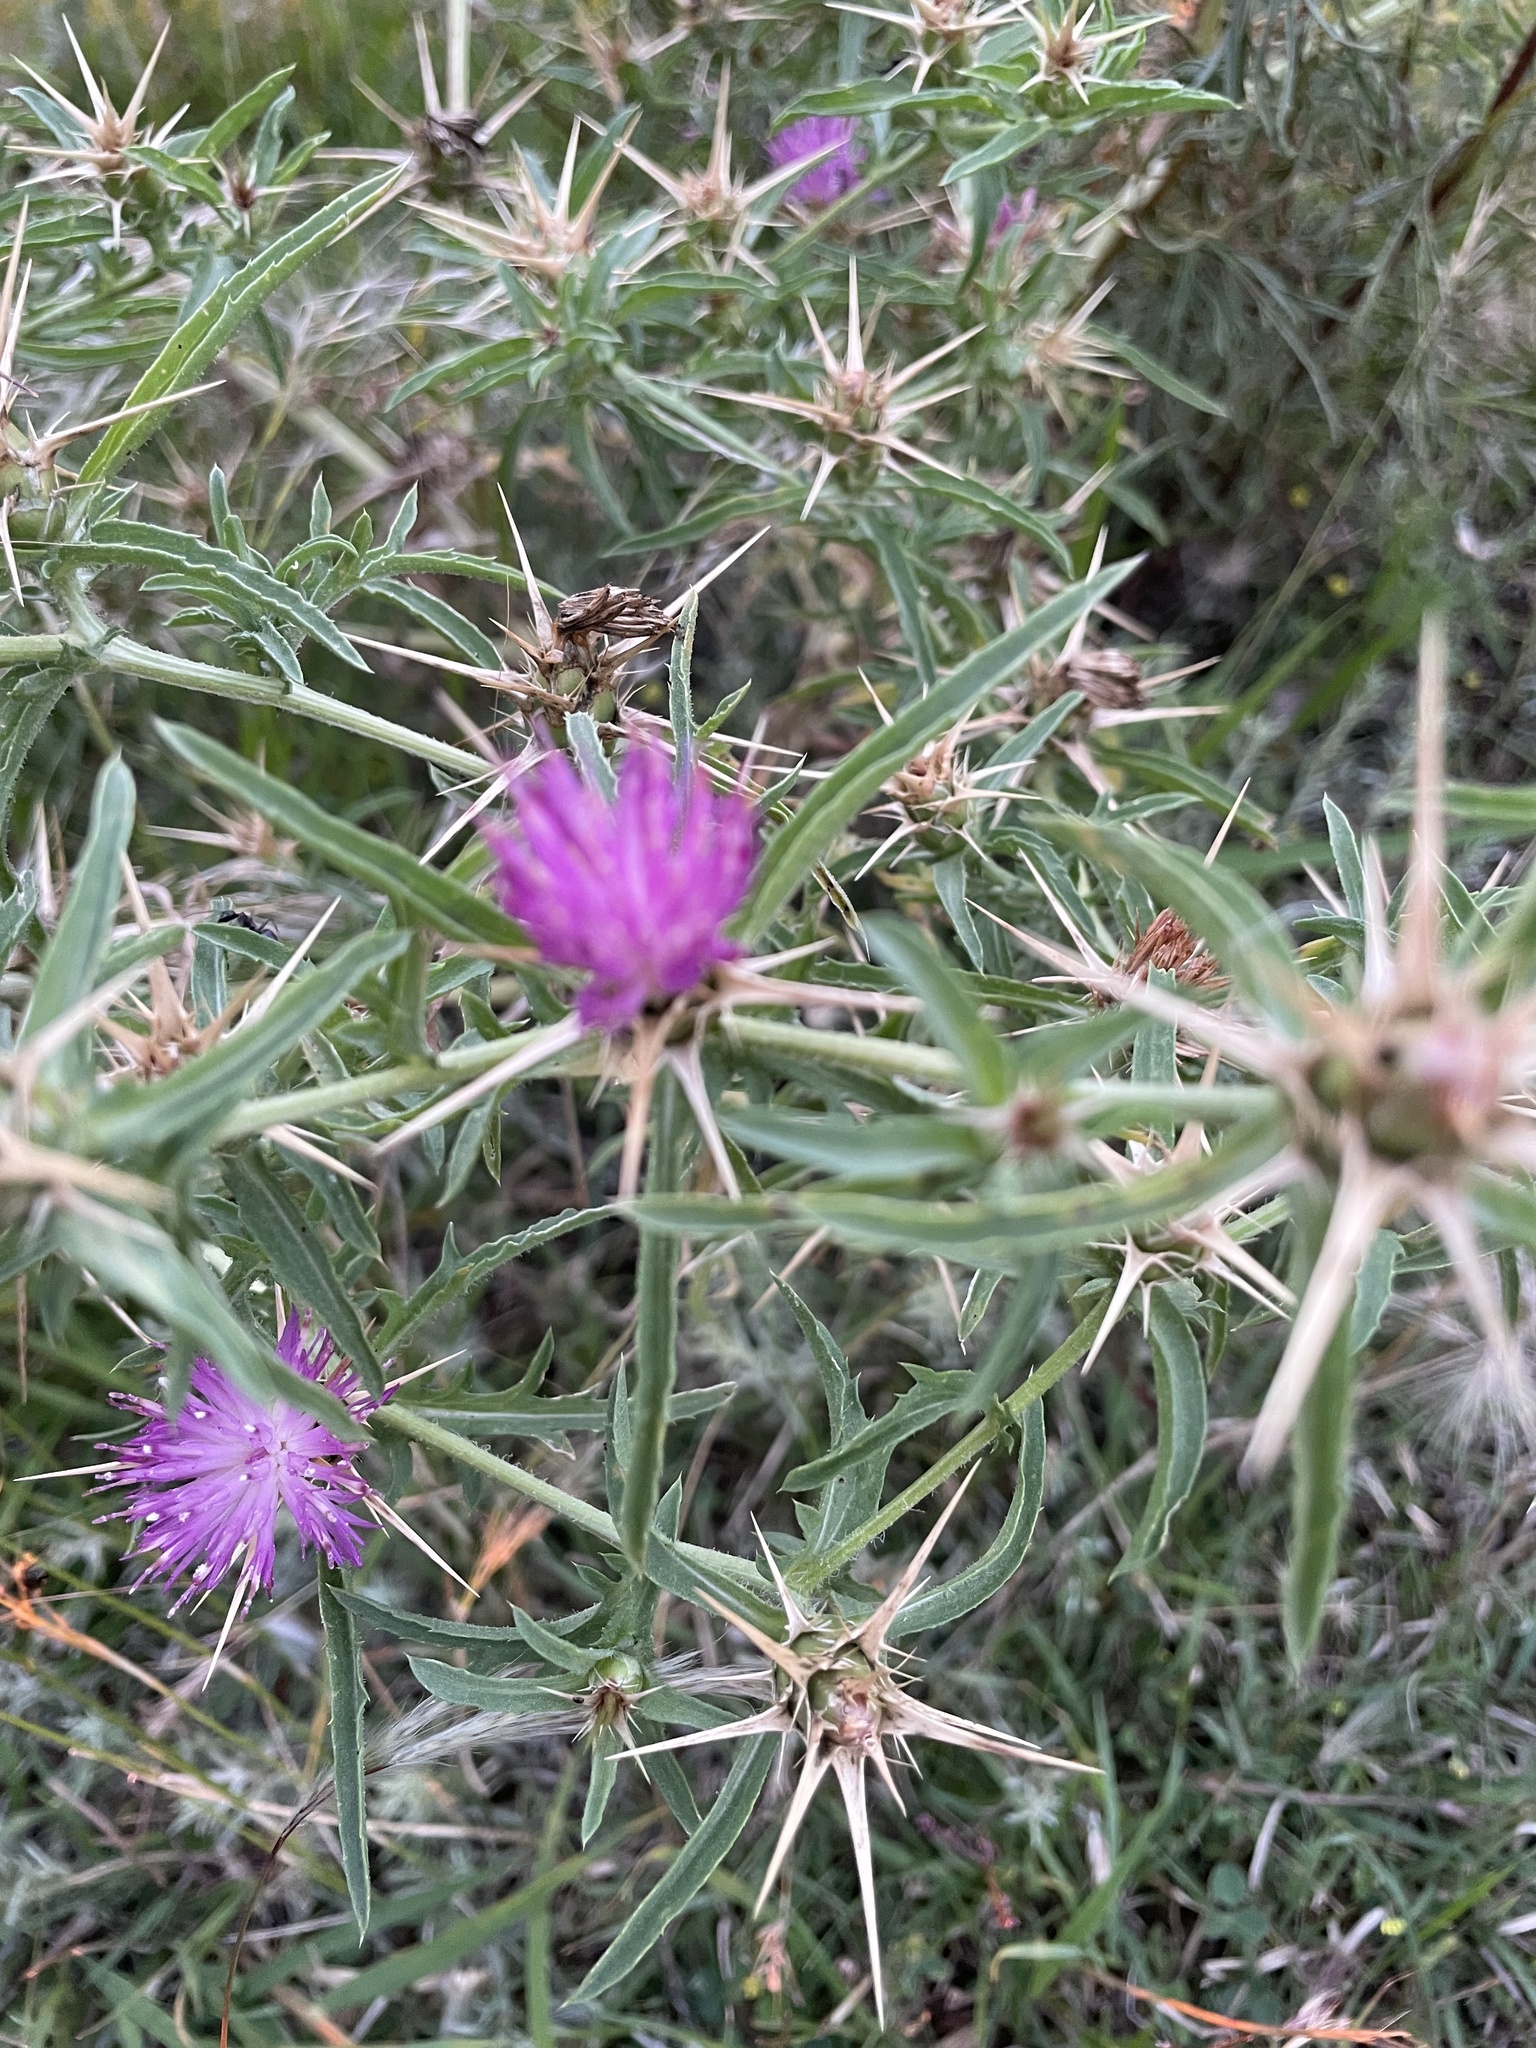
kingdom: Plantae
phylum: Tracheophyta
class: Magnoliopsida
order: Asterales
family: Asteraceae
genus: Centaurea
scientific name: Centaurea calcitrapa
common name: Red star-thistle
